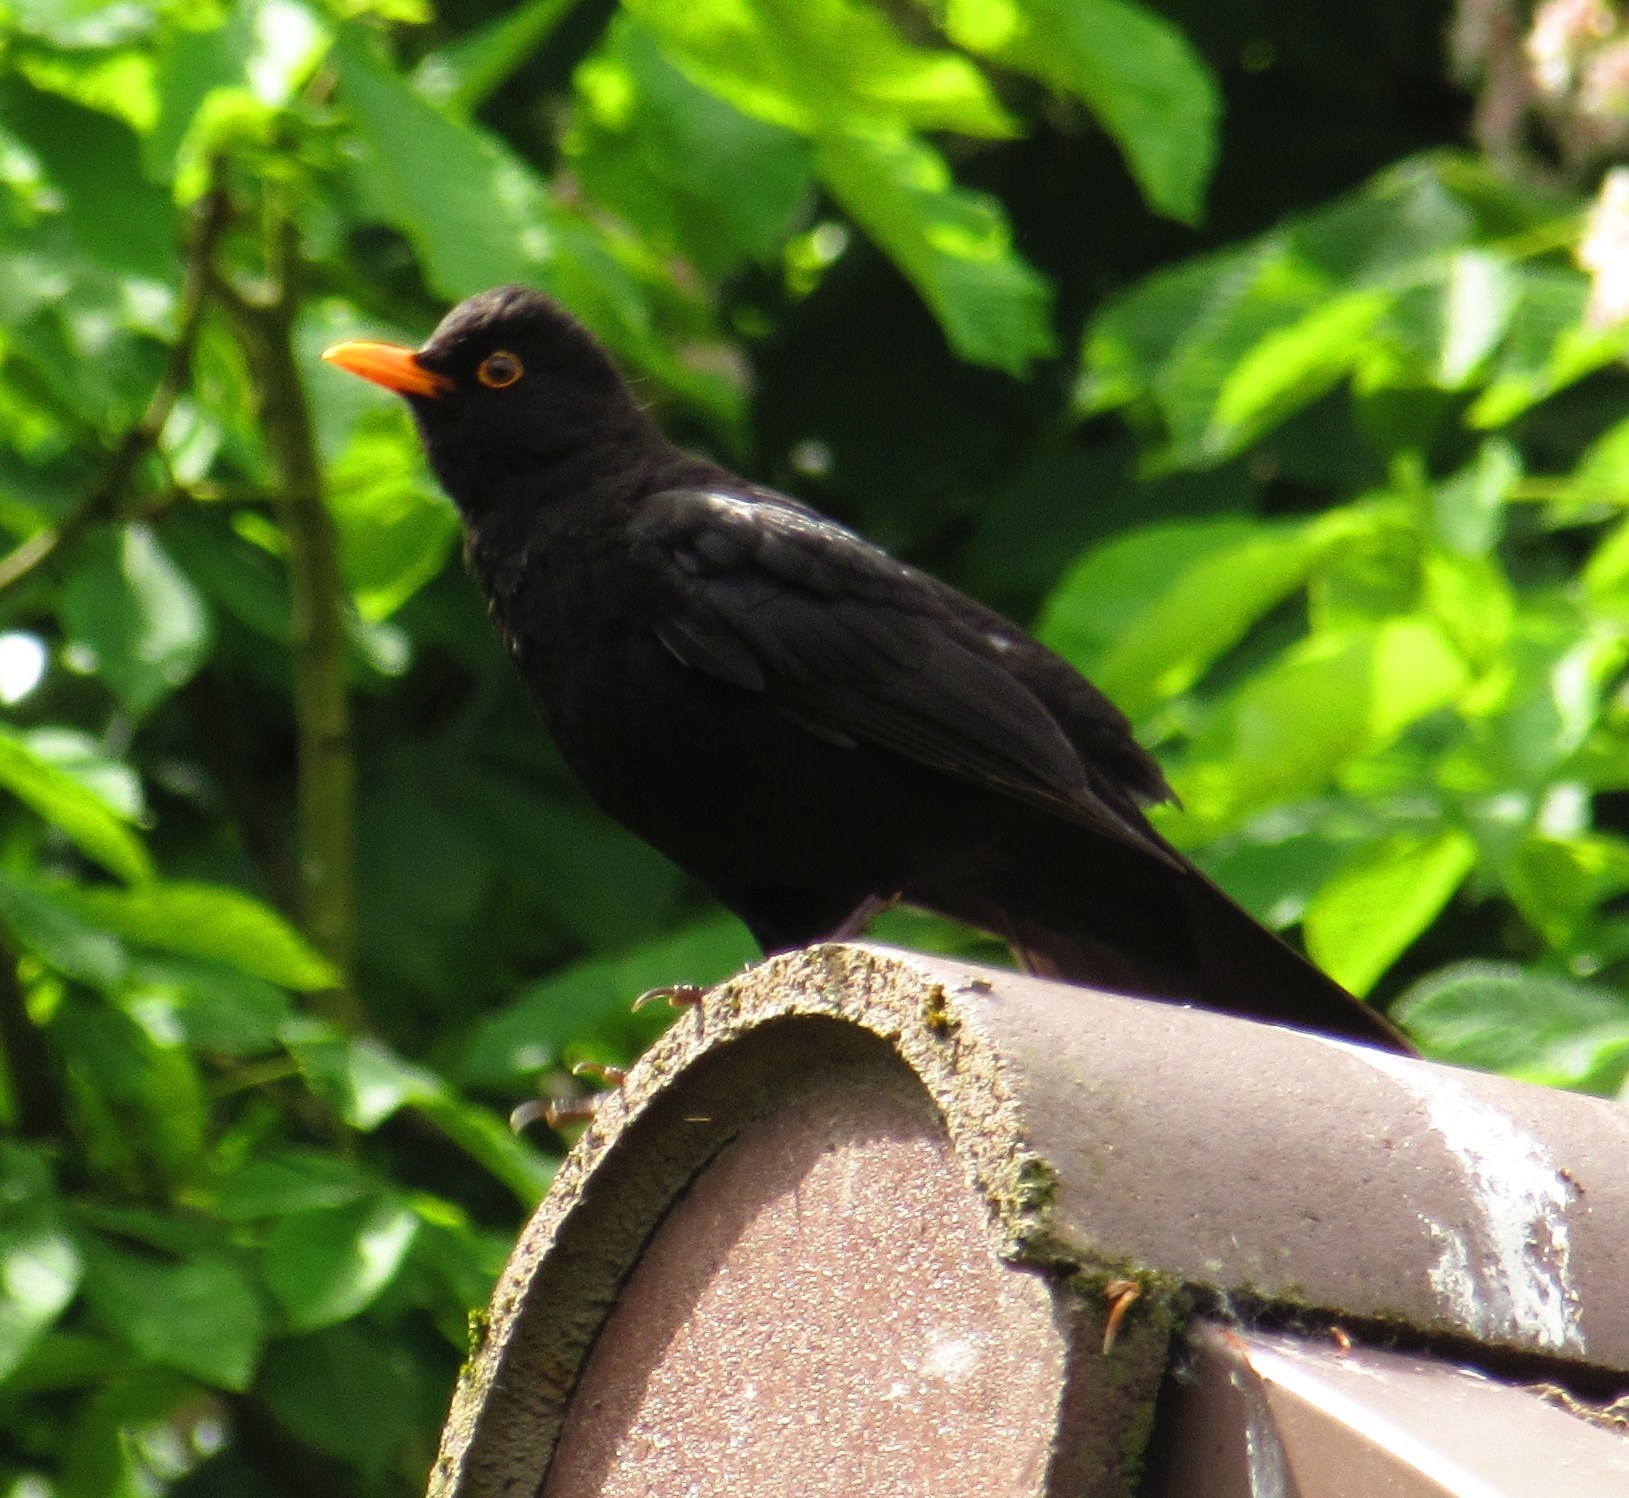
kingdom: Animalia
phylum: Chordata
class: Aves
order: Passeriformes
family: Turdidae
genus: Turdus
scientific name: Turdus merula
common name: Common blackbird
